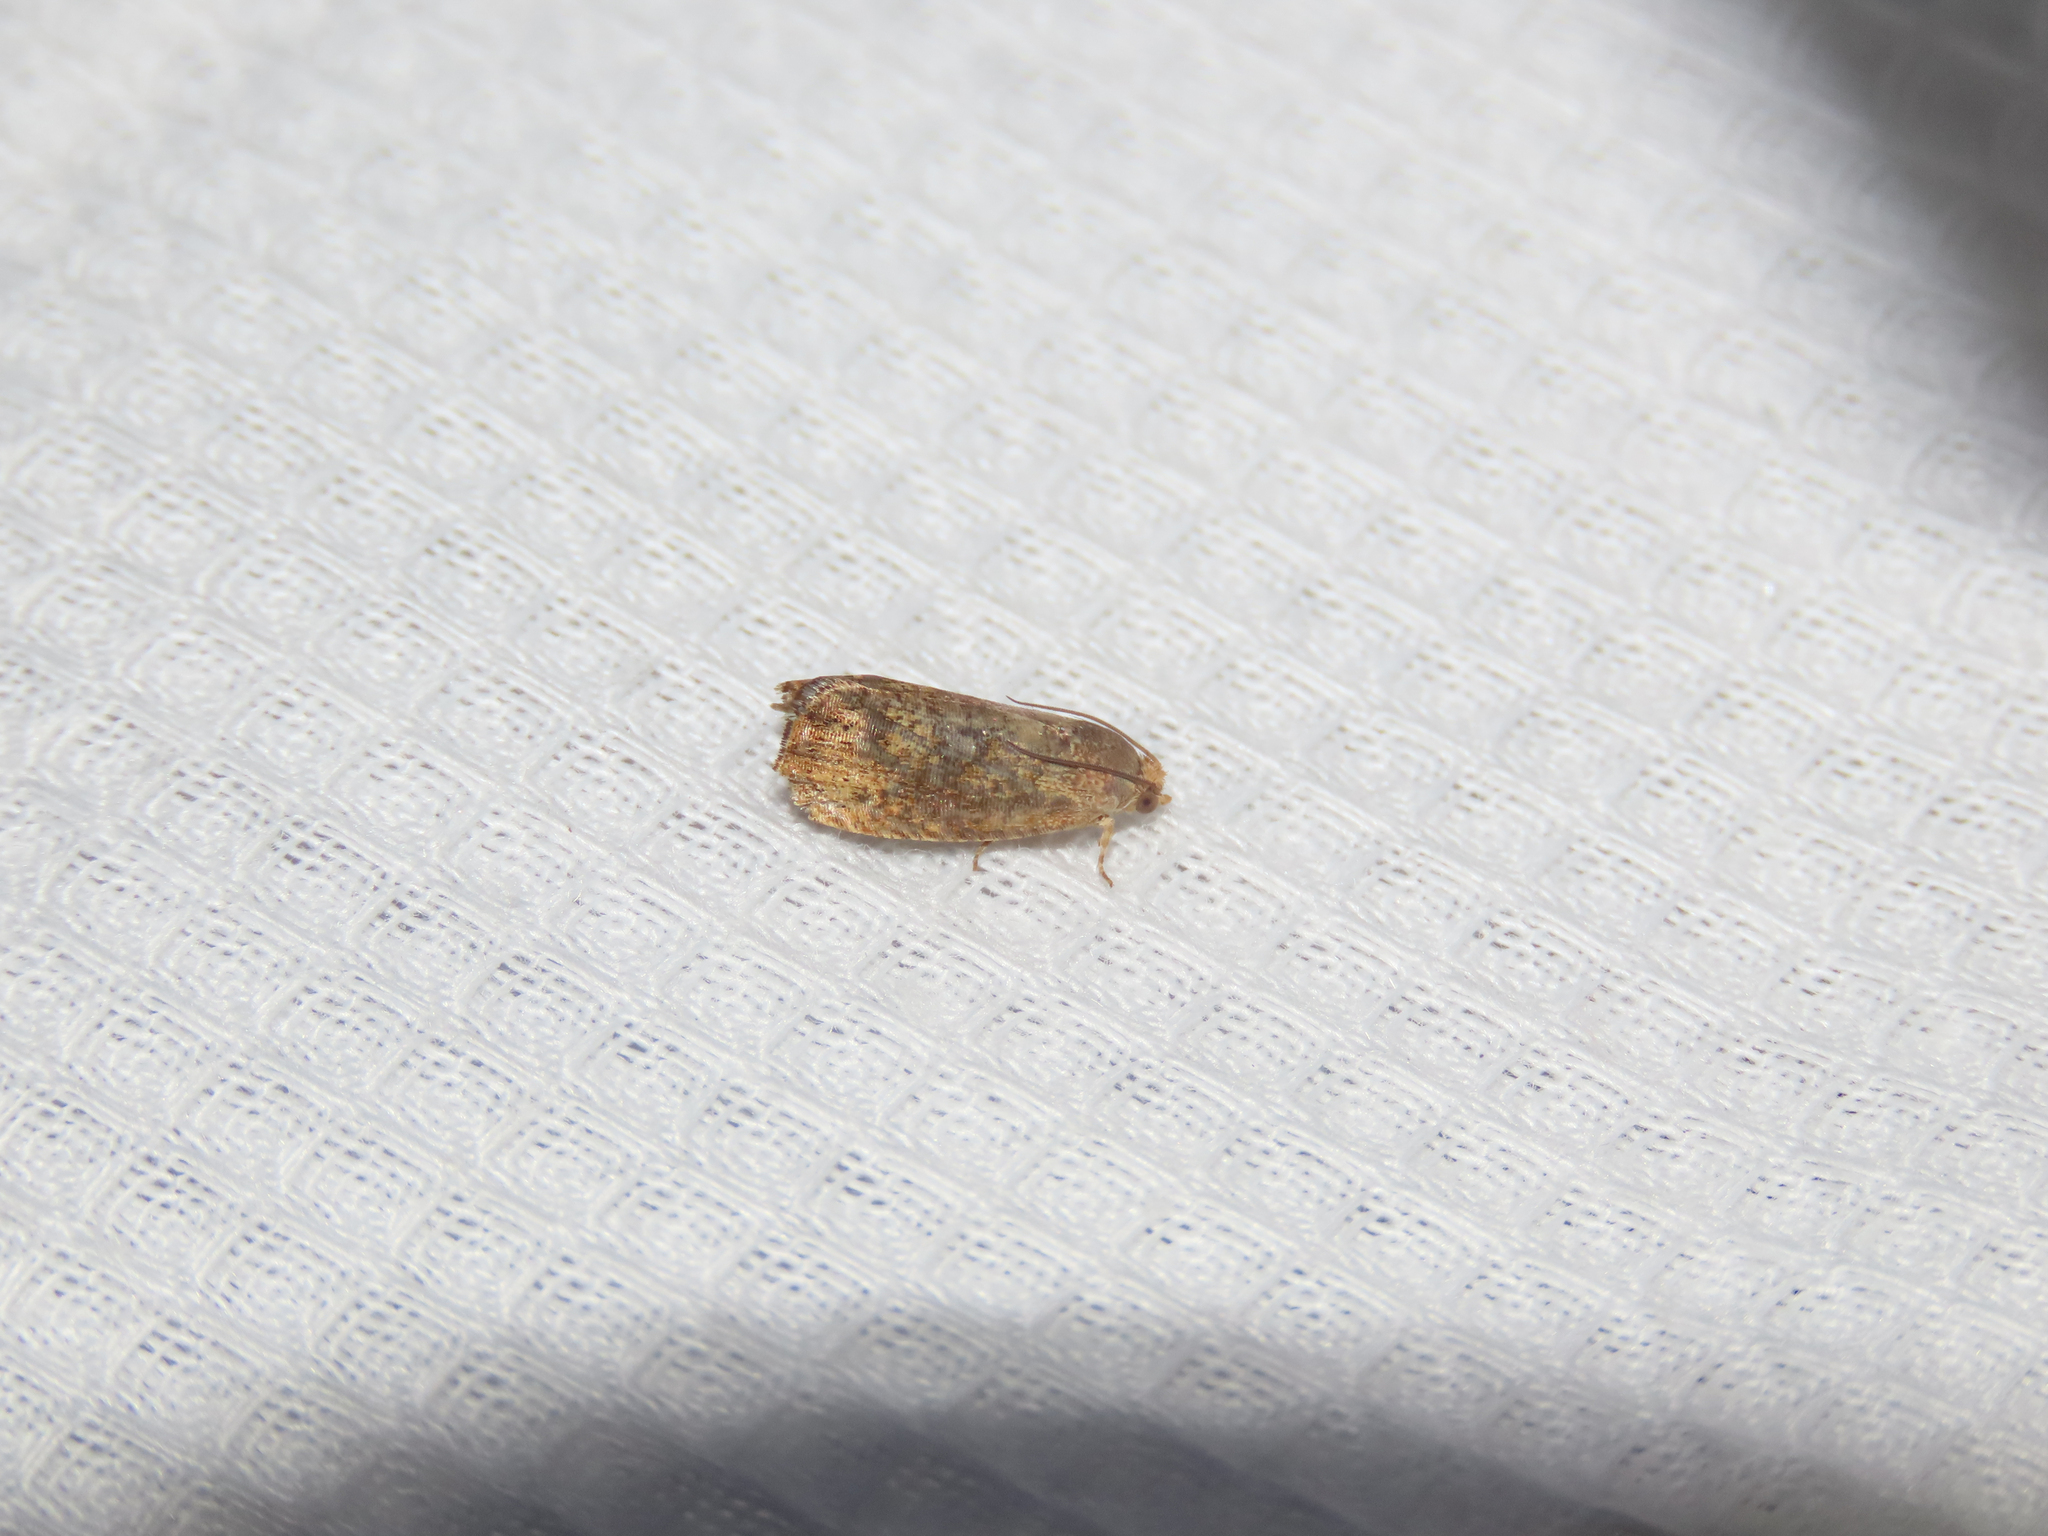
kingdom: Animalia
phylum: Arthropoda
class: Insecta
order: Lepidoptera
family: Tortricidae
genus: Cydia
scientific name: Cydia latiferreana
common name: Filbertworm moth
